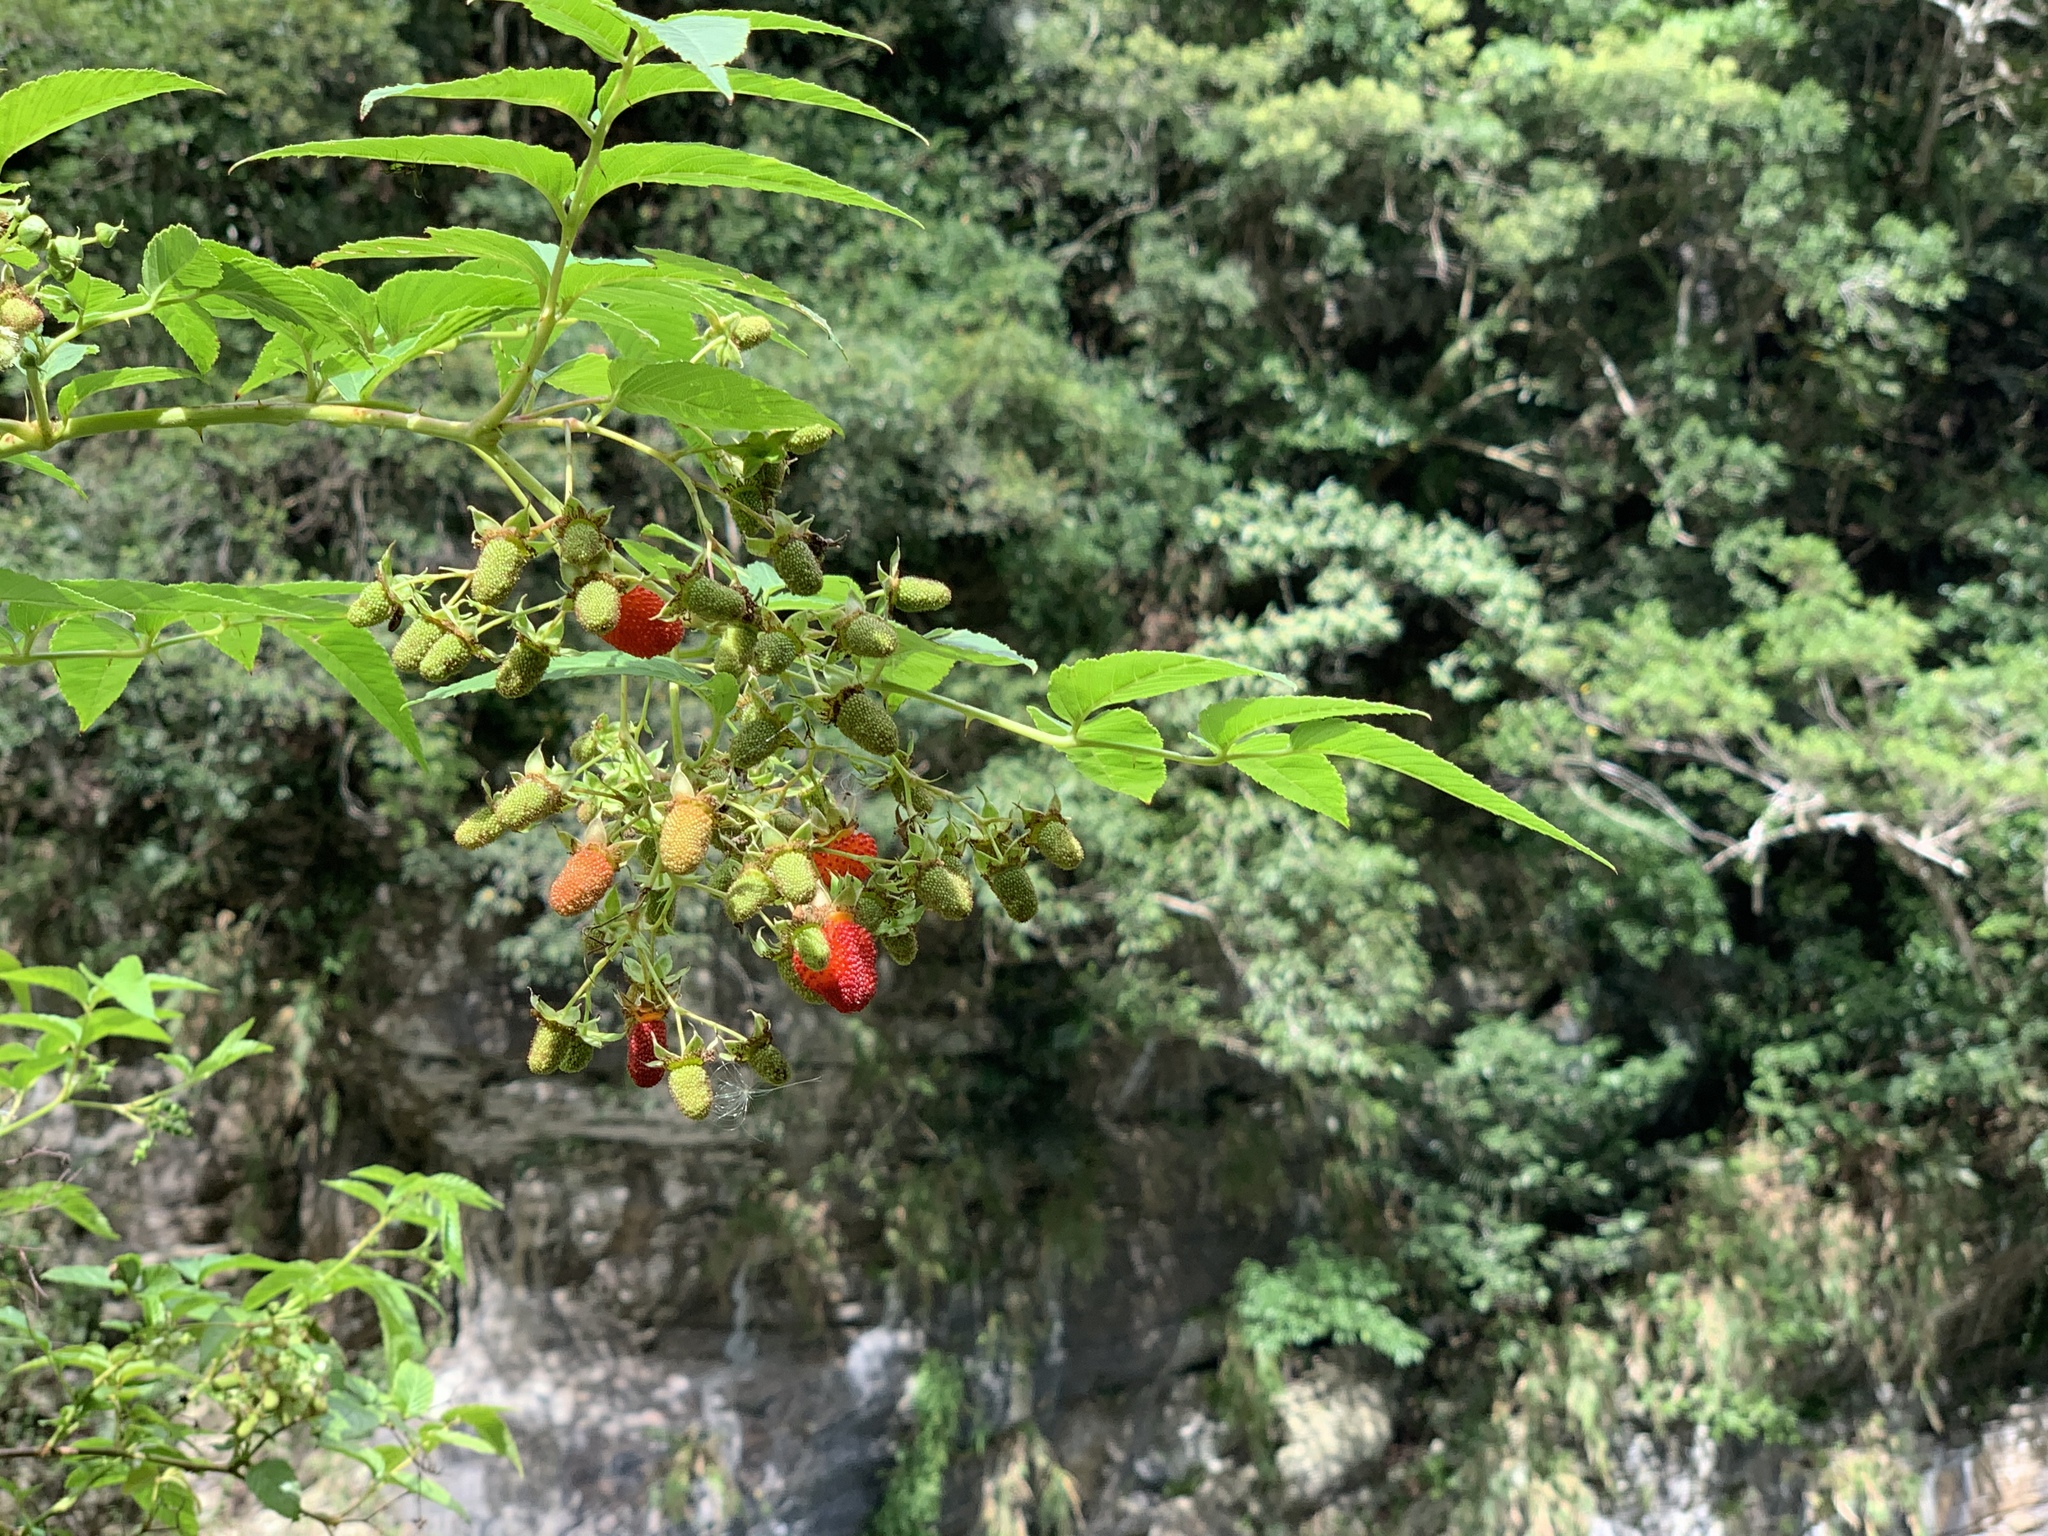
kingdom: Plantae
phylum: Tracheophyta
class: Magnoliopsida
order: Rosales
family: Rosaceae
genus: Rubus
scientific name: Rubus fraxinifolius
